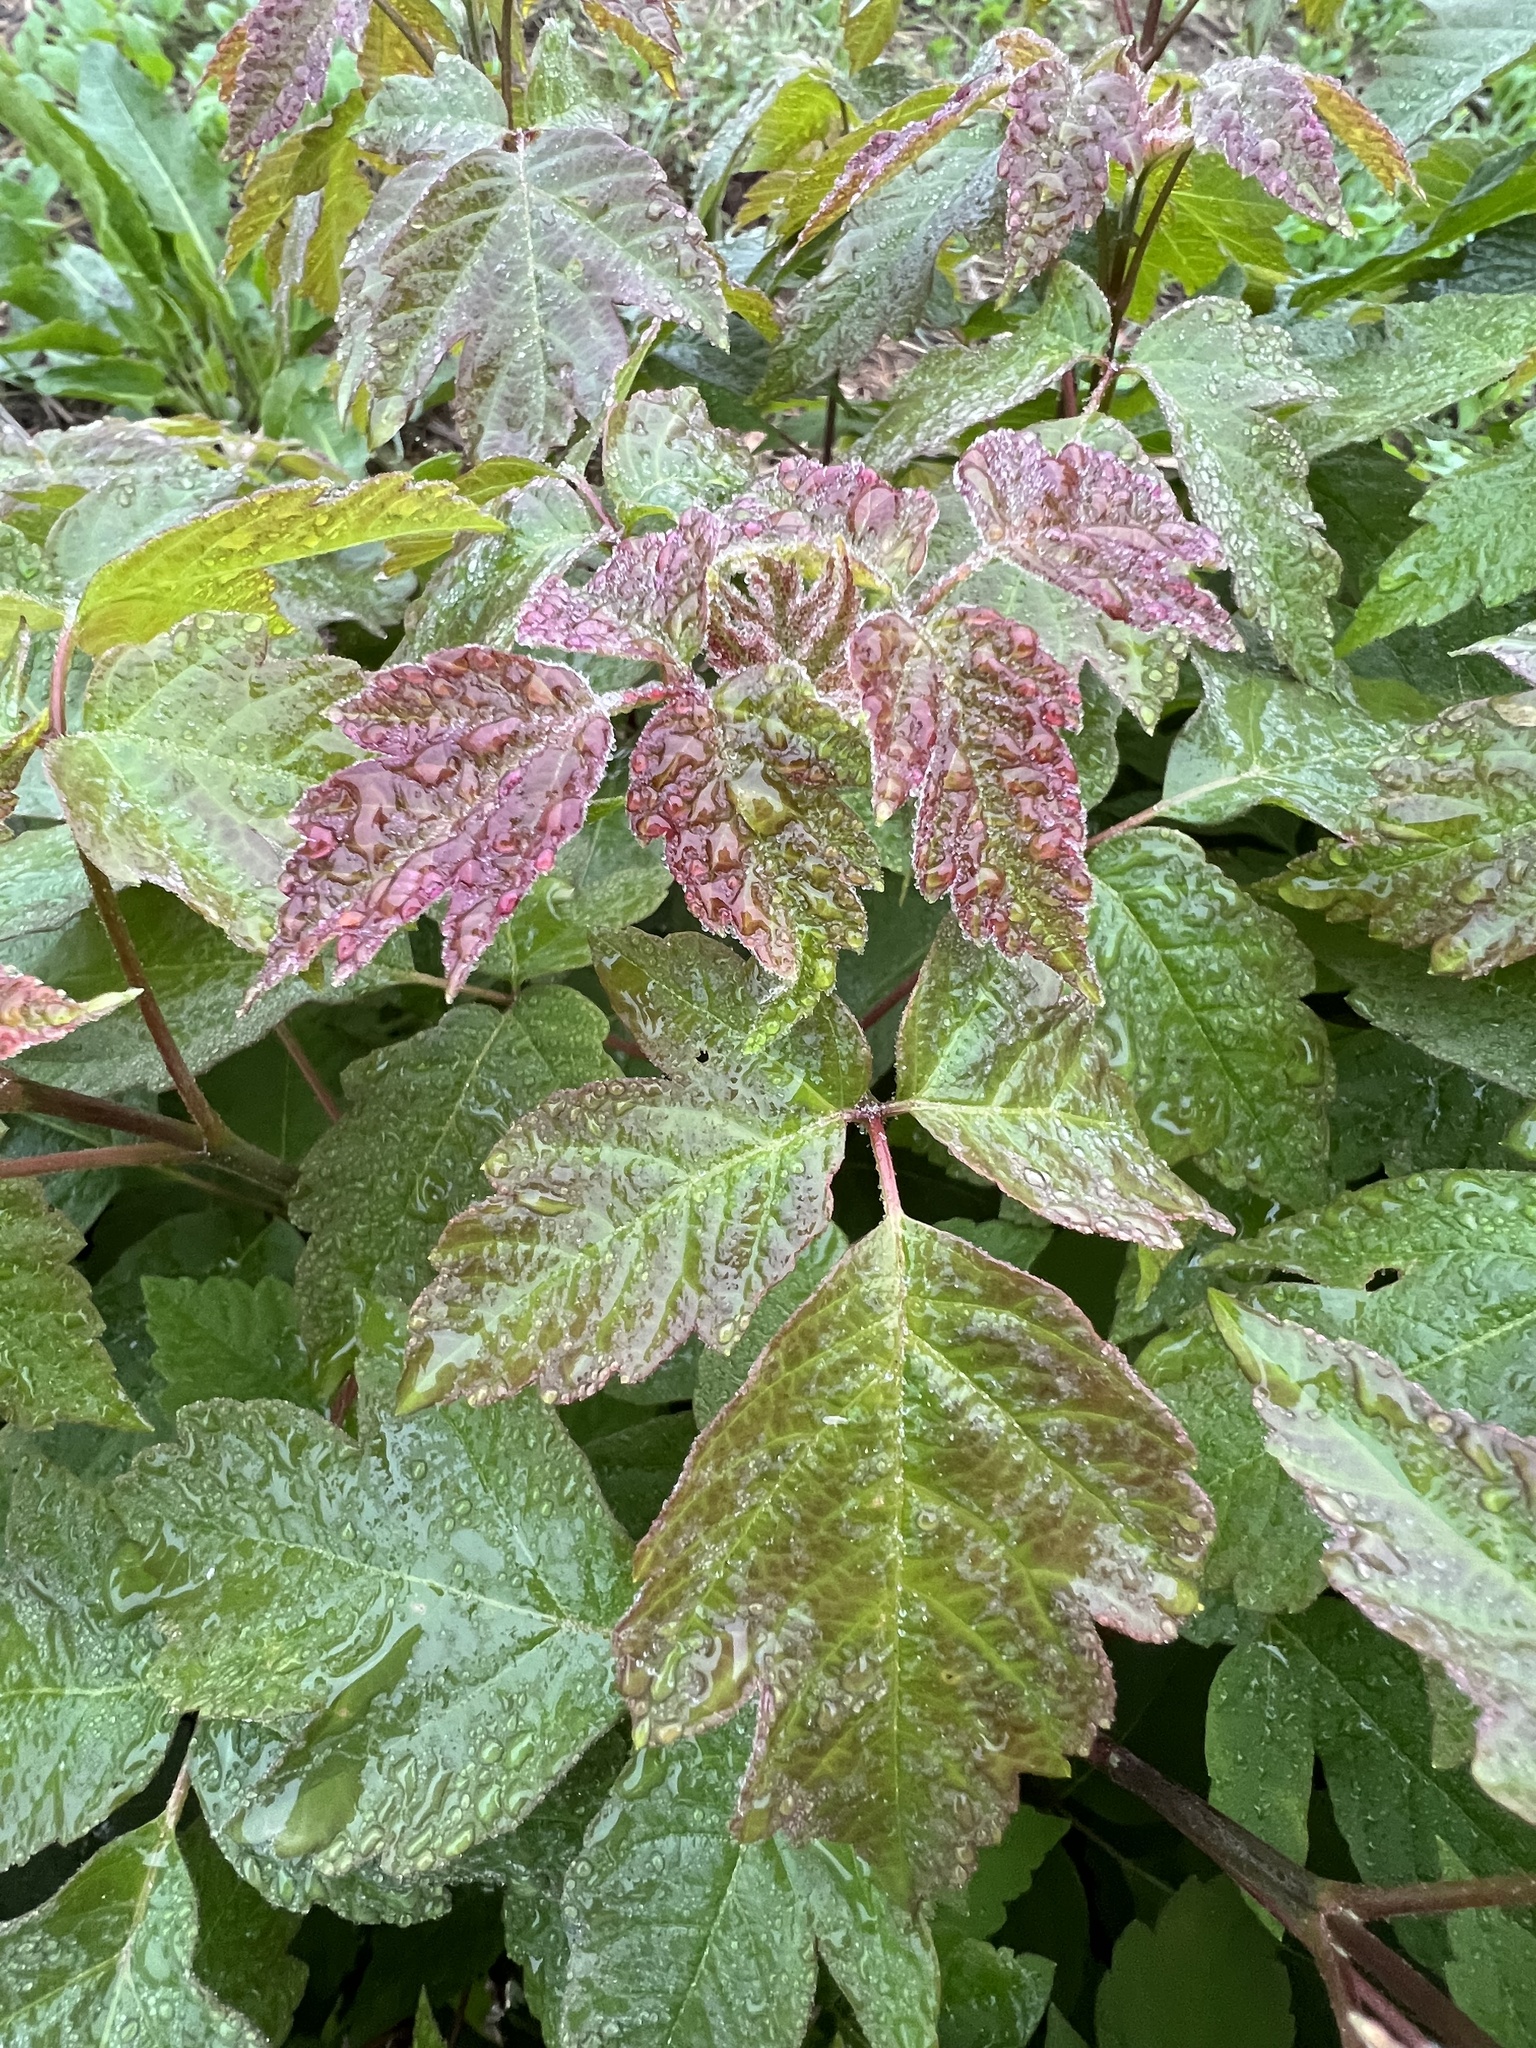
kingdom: Plantae
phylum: Tracheophyta
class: Magnoliopsida
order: Sapindales
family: Sapindaceae
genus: Acer
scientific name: Acer negundo
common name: Ashleaf maple
